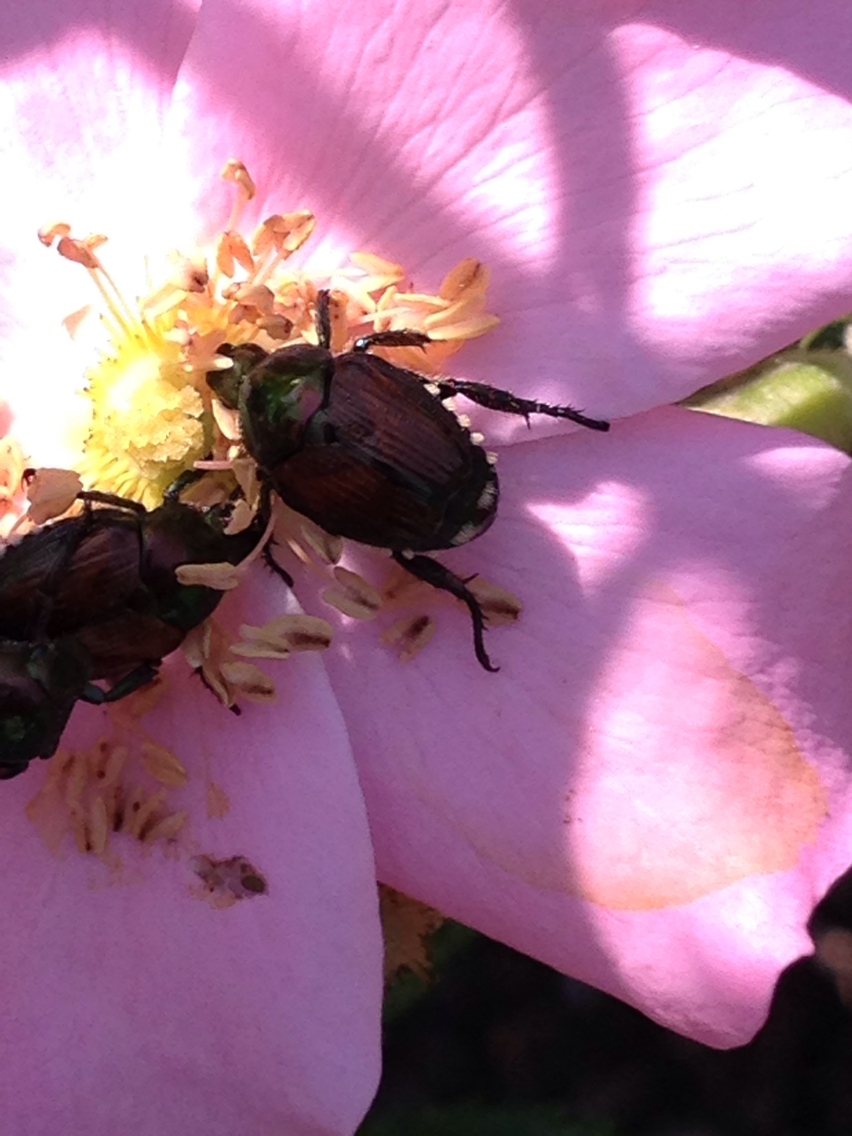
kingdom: Animalia
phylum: Arthropoda
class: Insecta
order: Coleoptera
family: Scarabaeidae
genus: Popillia
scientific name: Popillia japonica
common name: Japanese beetle
